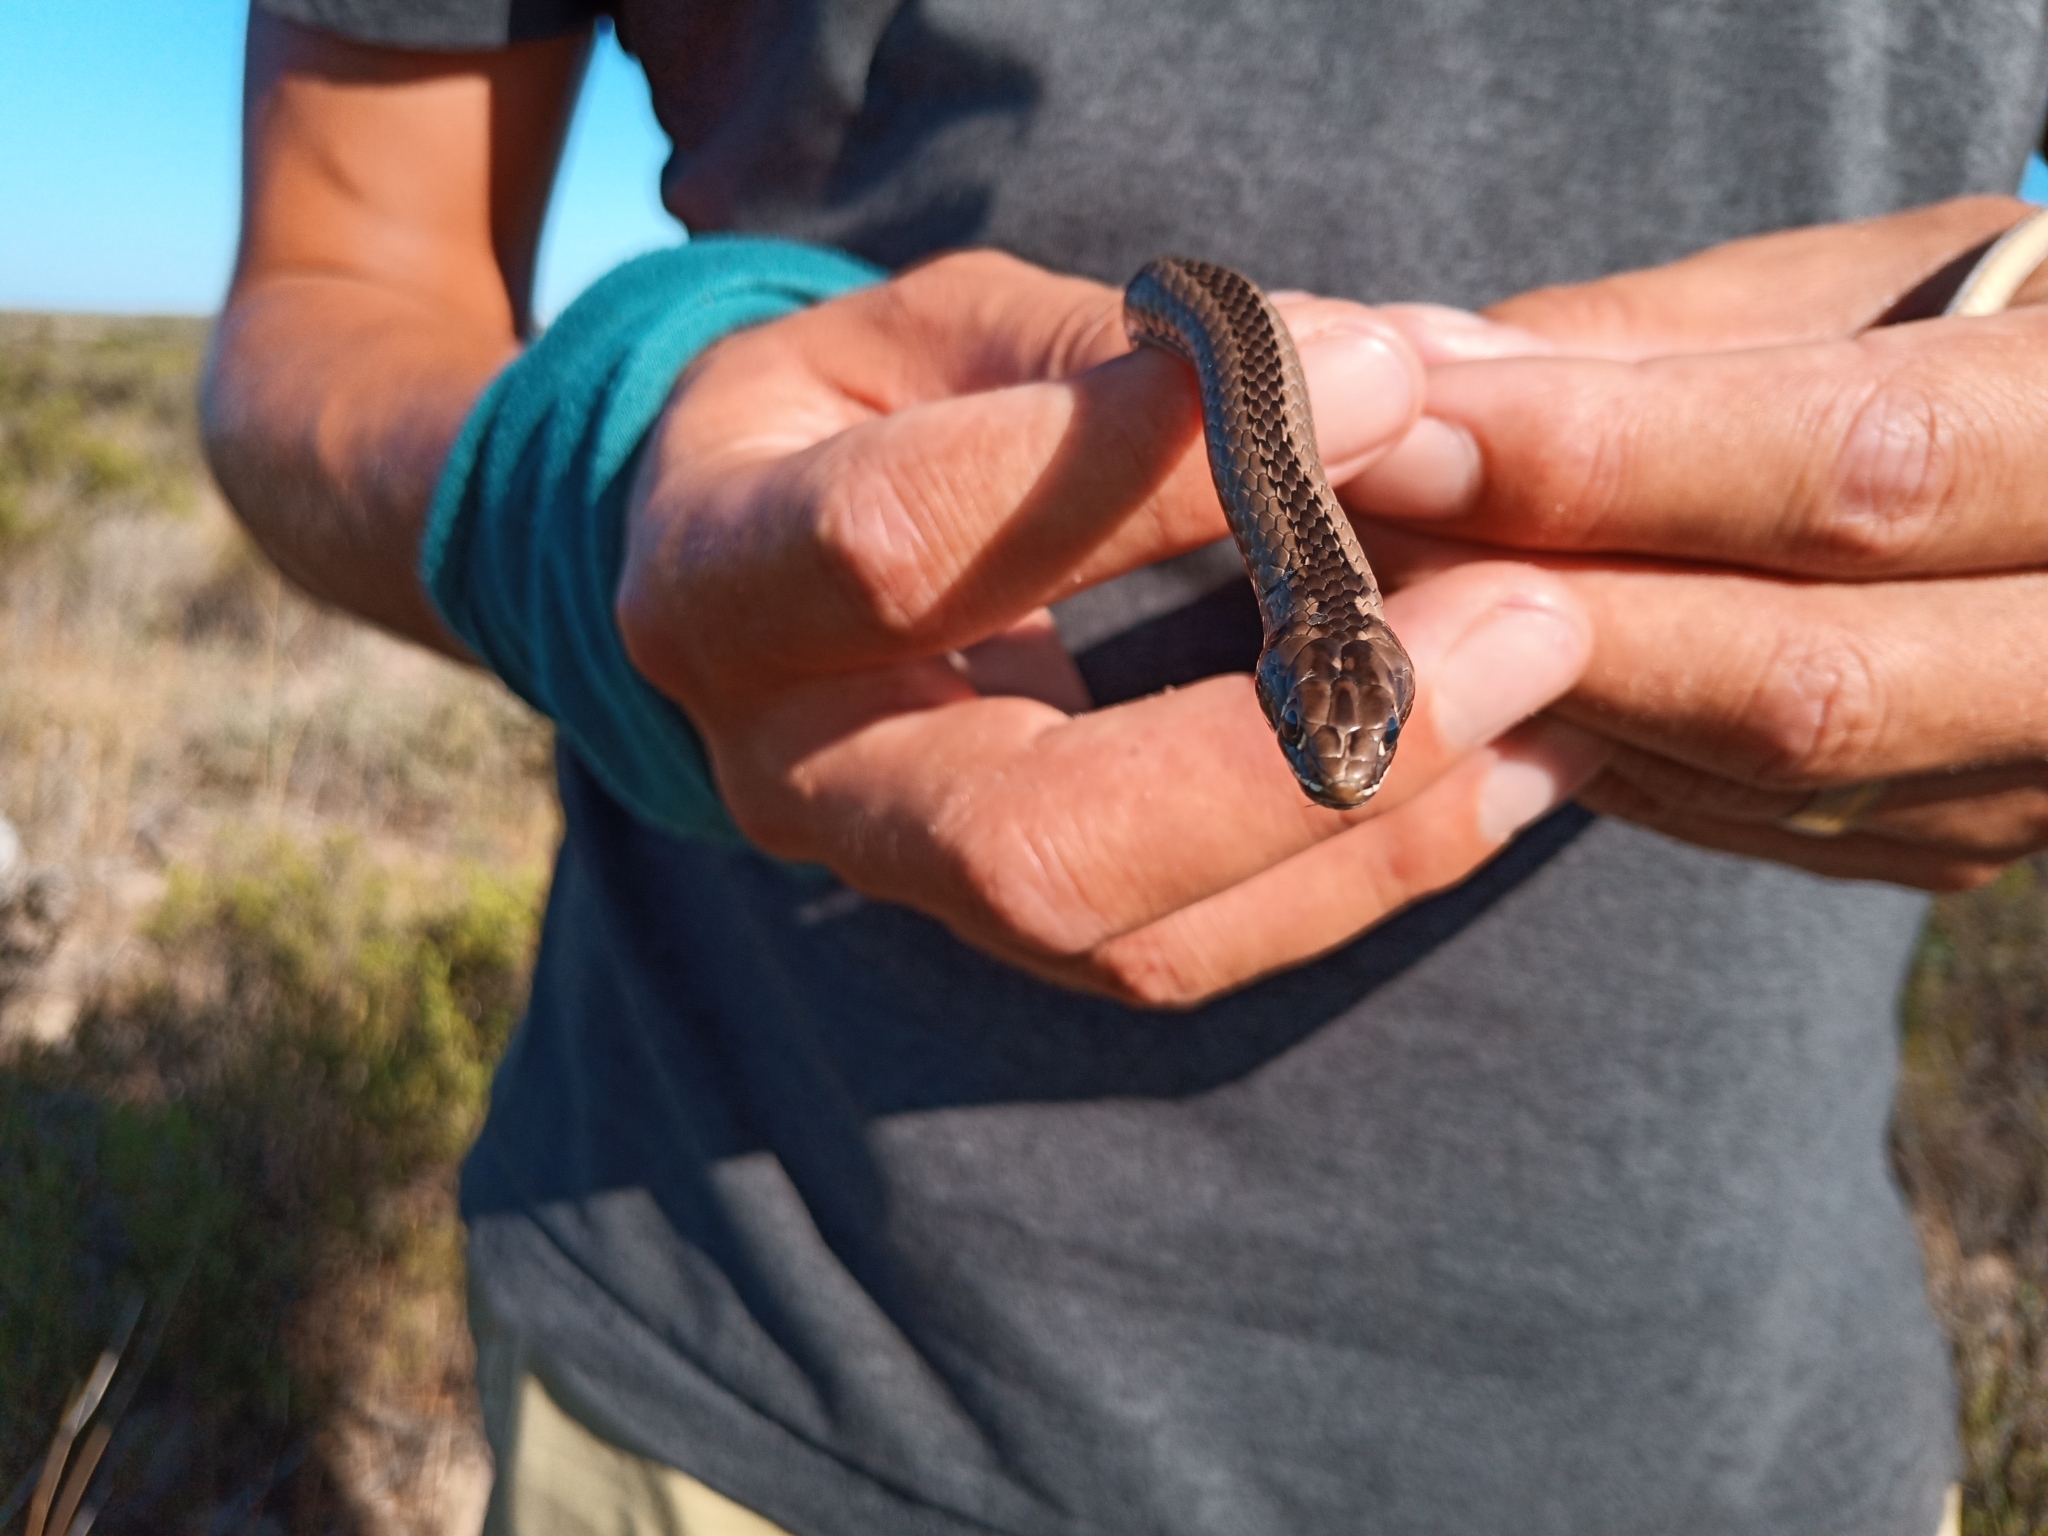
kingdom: Animalia
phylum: Chordata
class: Squamata
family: Psammophiidae
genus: Psammophis
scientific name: Psammophis crucifer
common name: Cross-marked grass snake
